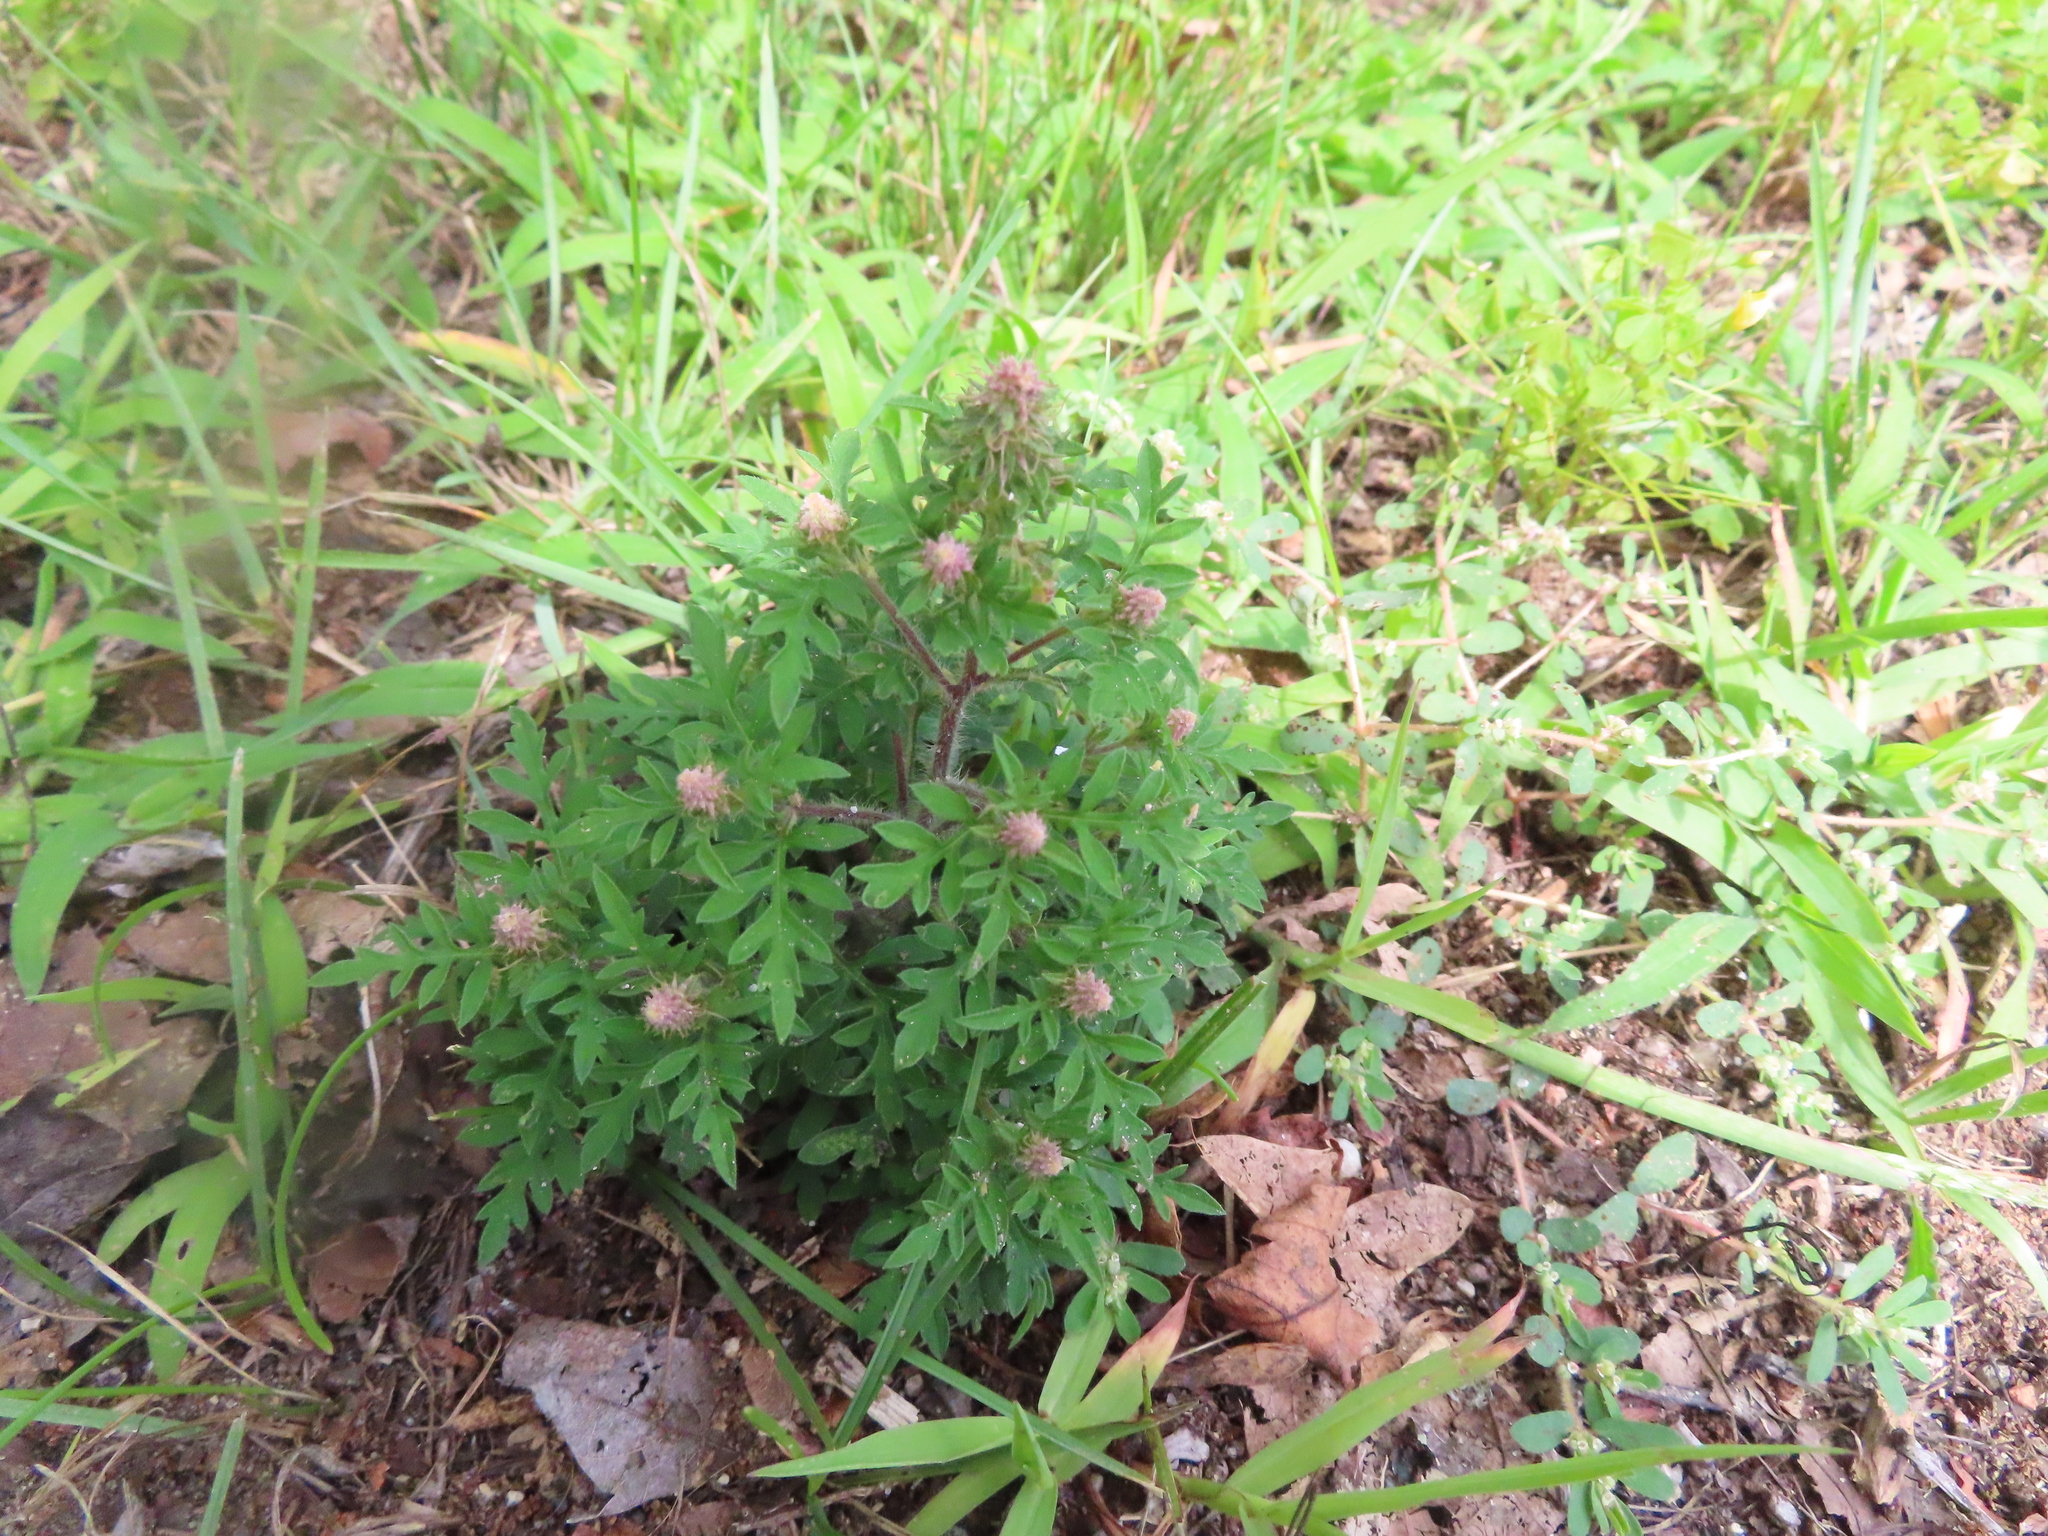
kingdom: Plantae
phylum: Tracheophyta
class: Magnoliopsida
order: Asterales
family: Asteraceae
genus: Ambrosia
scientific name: Ambrosia artemisiifolia
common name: Annual ragweed
